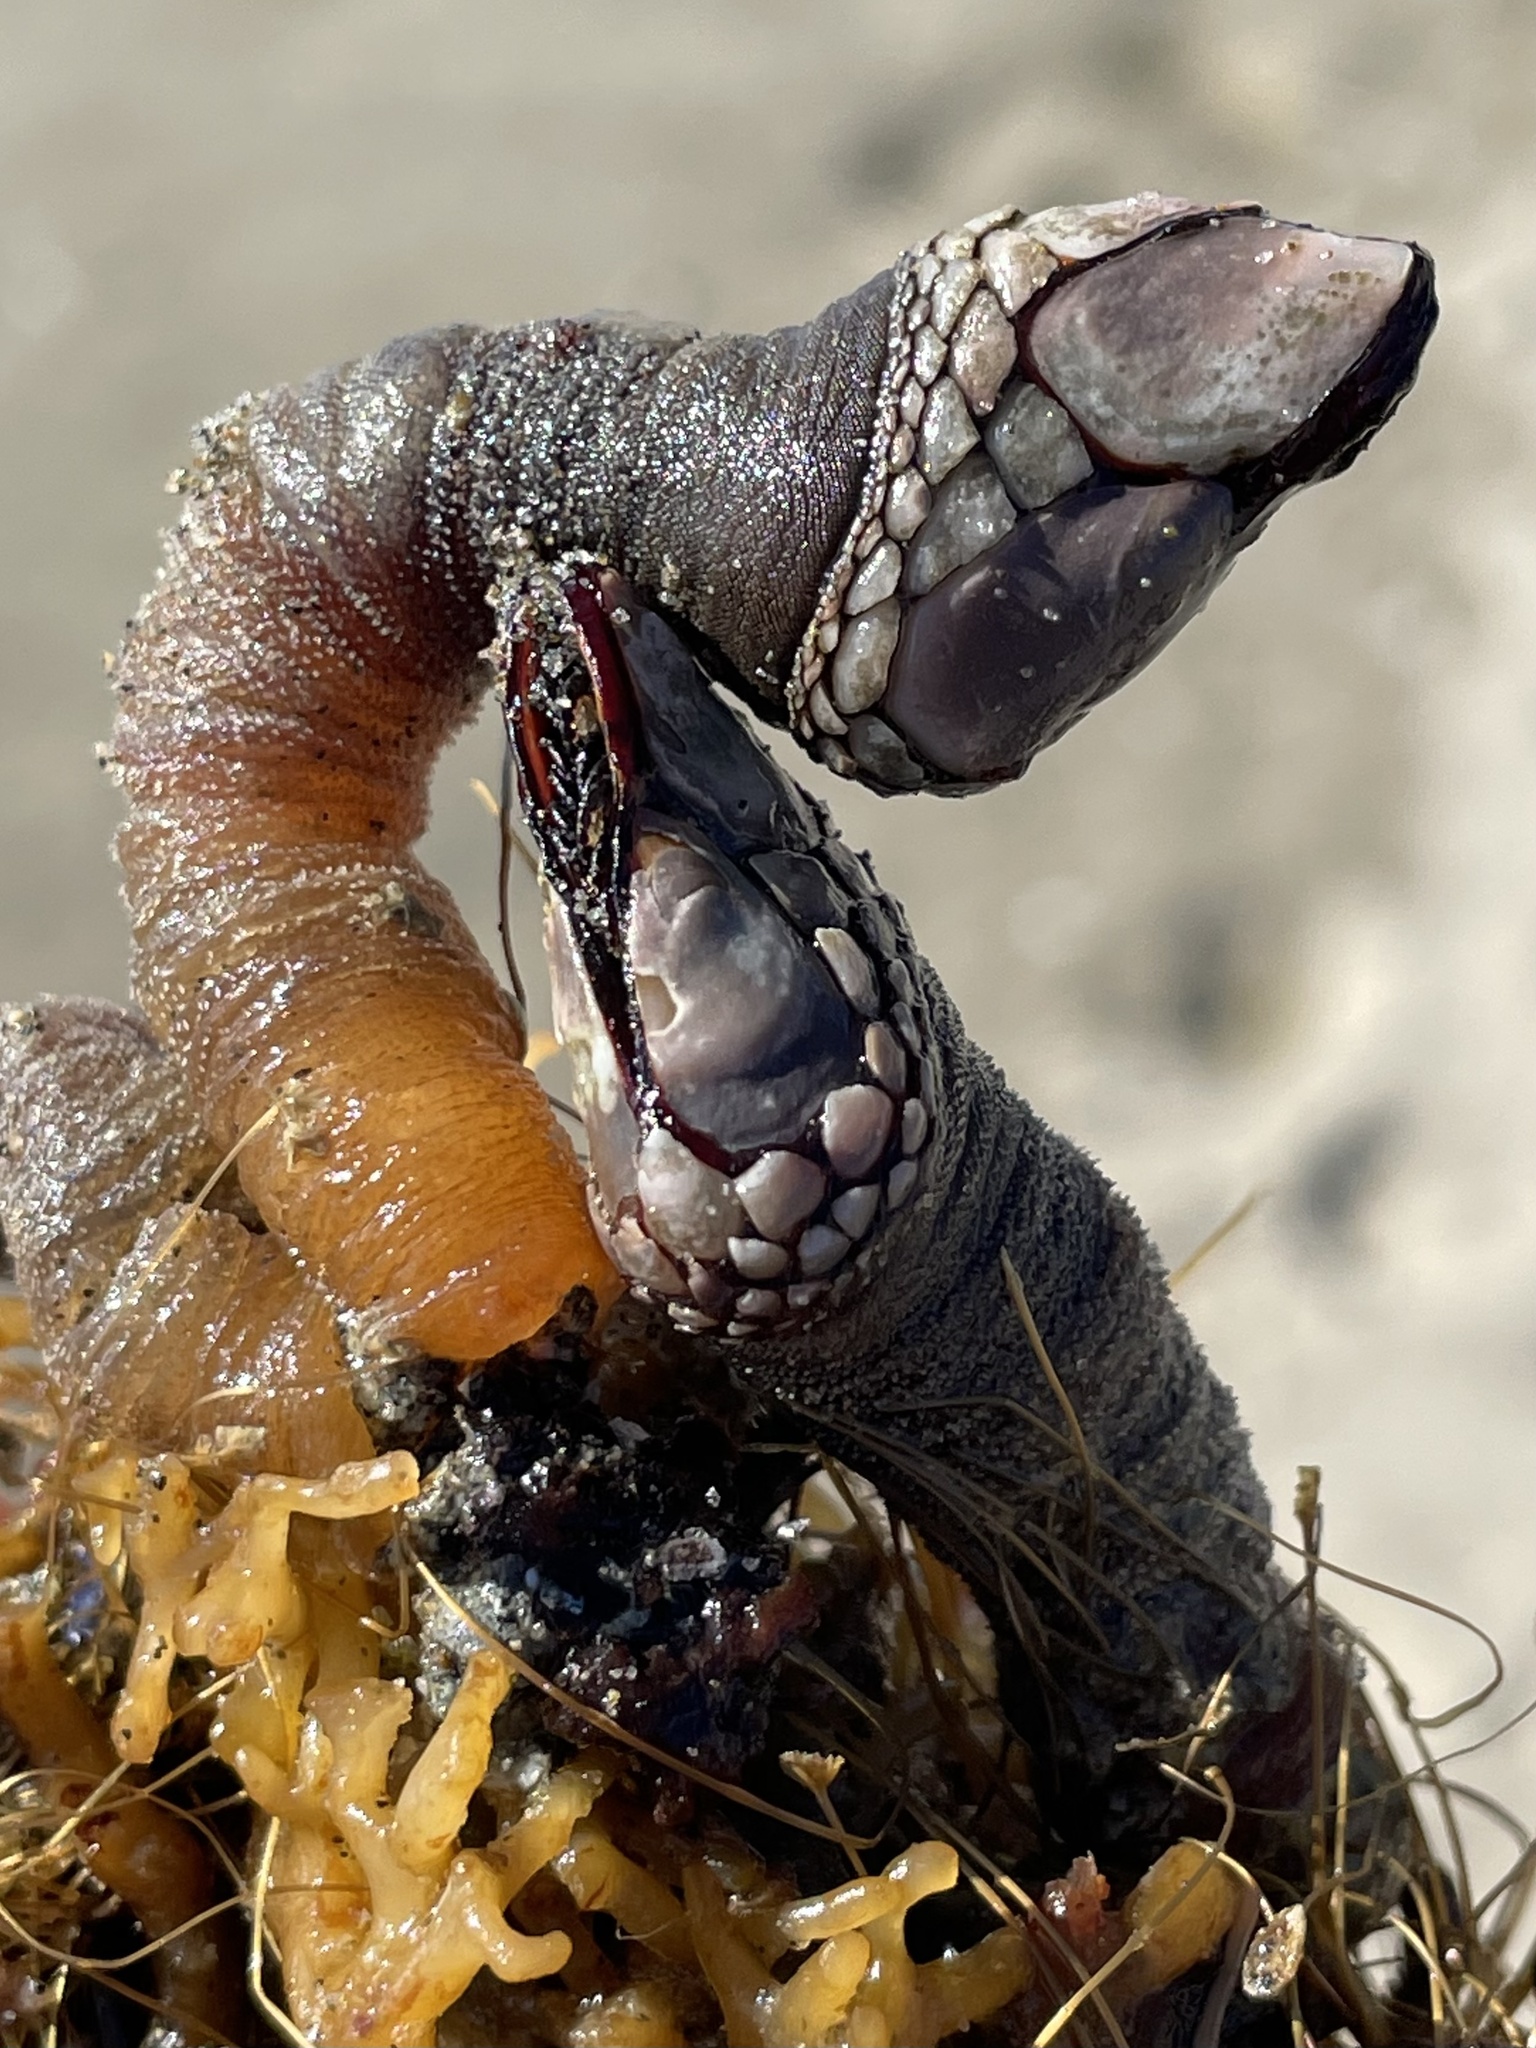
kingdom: Animalia
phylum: Arthropoda
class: Maxillopoda
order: Pedunculata
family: Pollicipedidae
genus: Pollicipes
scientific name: Pollicipes polymerus
